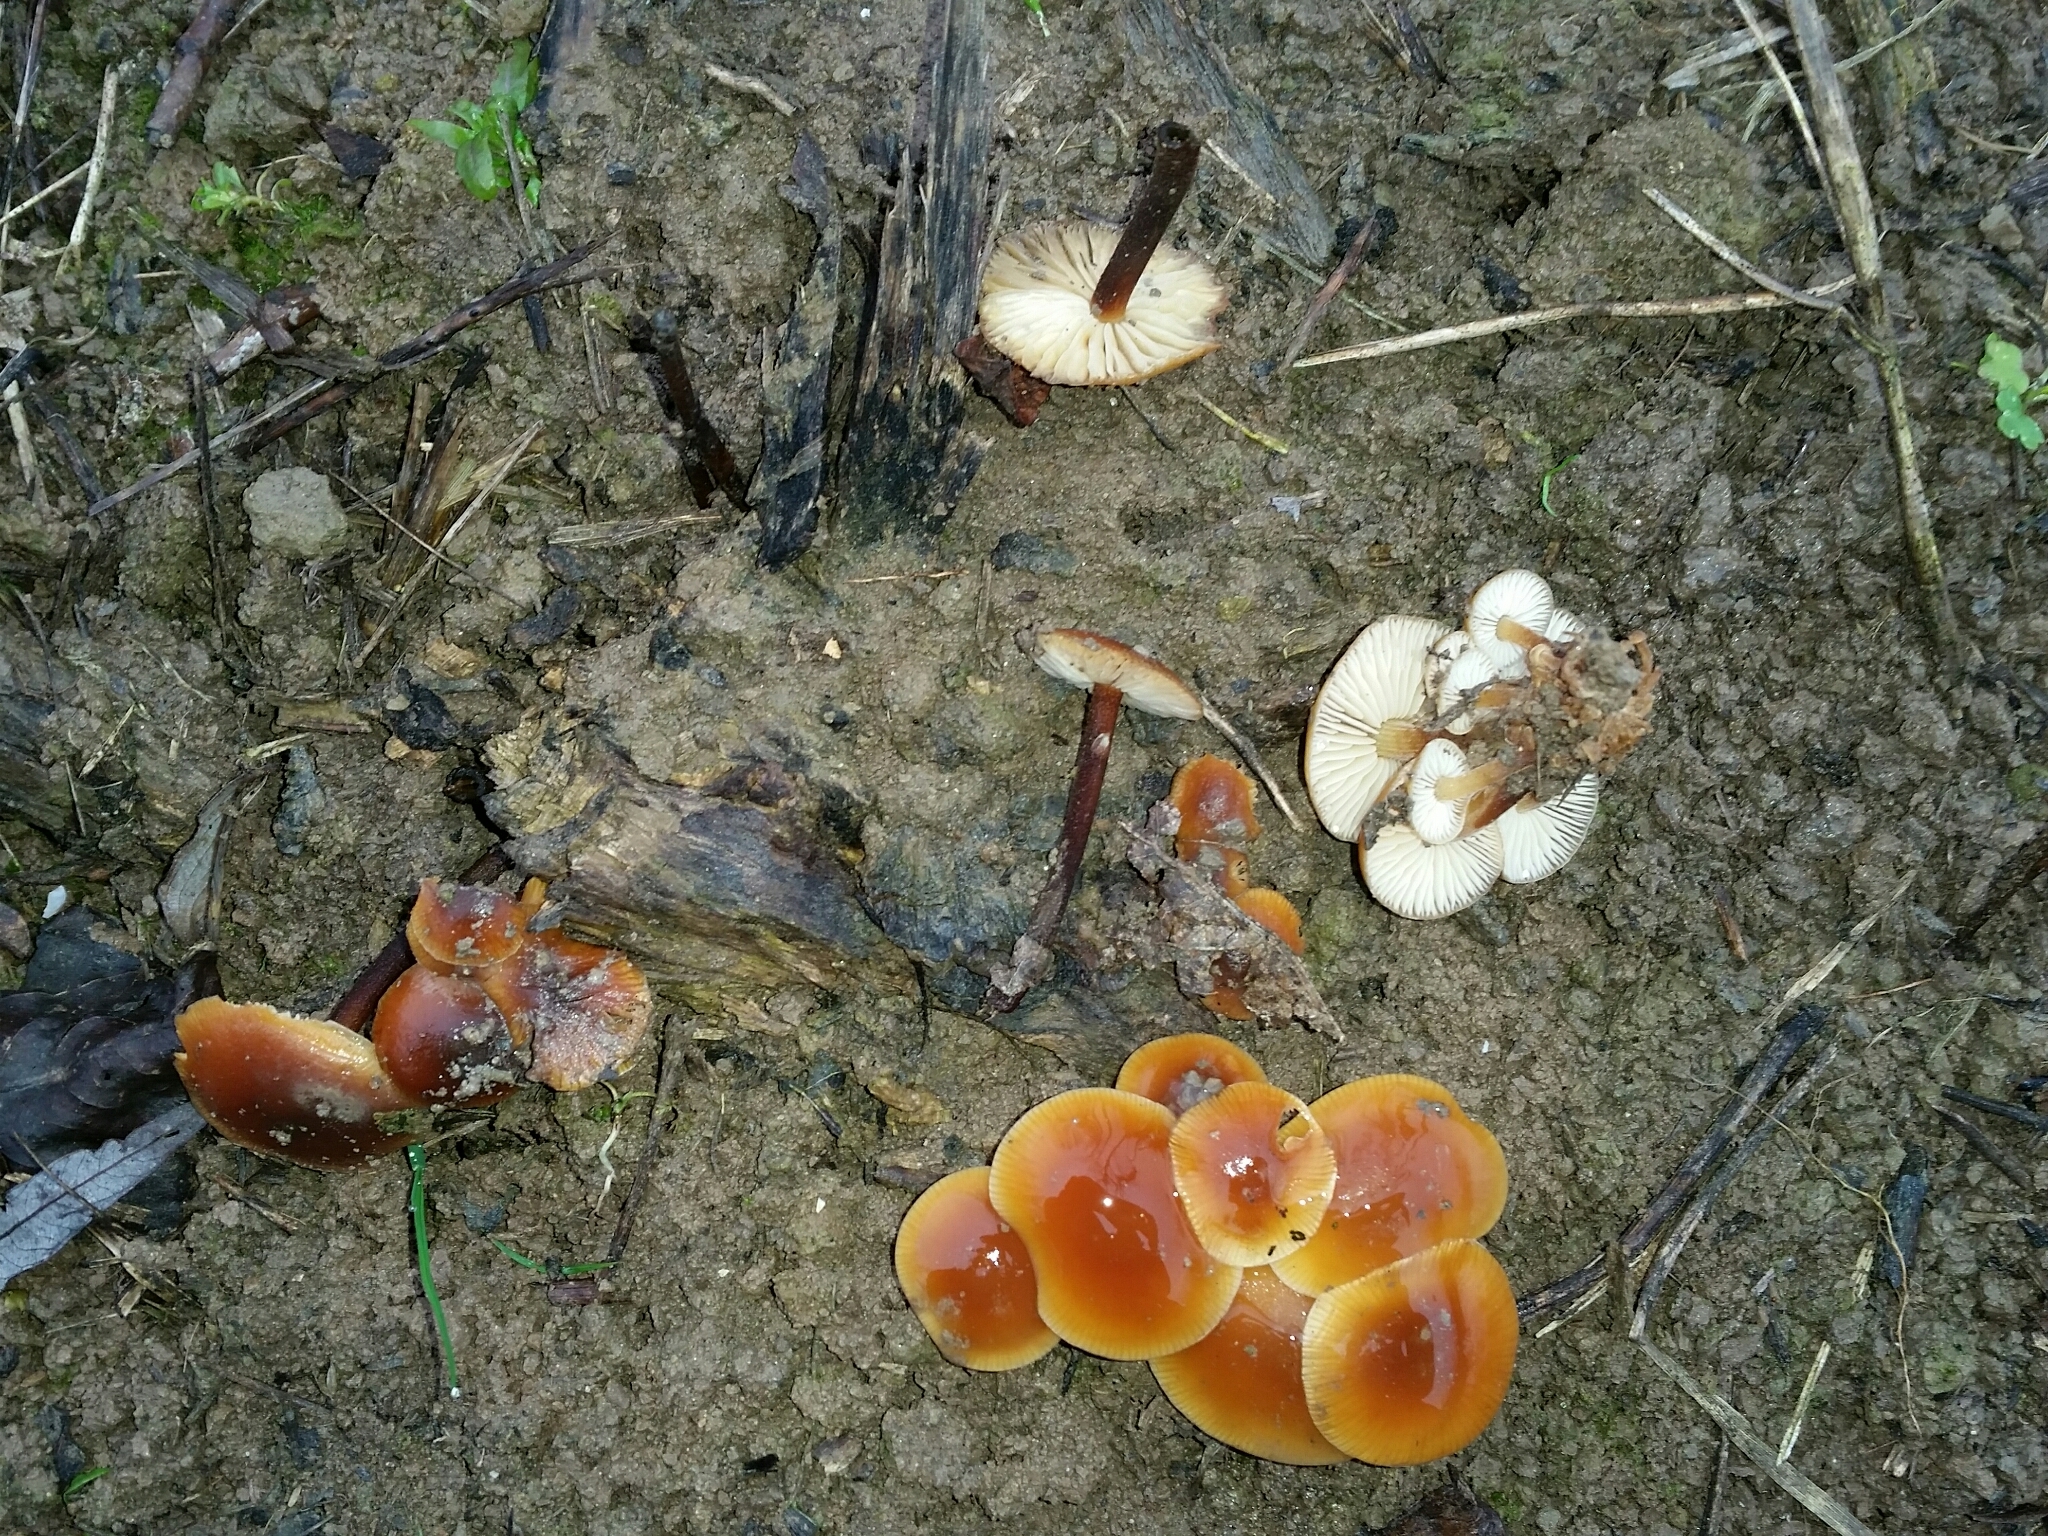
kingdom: Fungi
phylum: Basidiomycota
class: Agaricomycetes
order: Agaricales
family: Physalacriaceae
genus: Flammulina
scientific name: Flammulina
